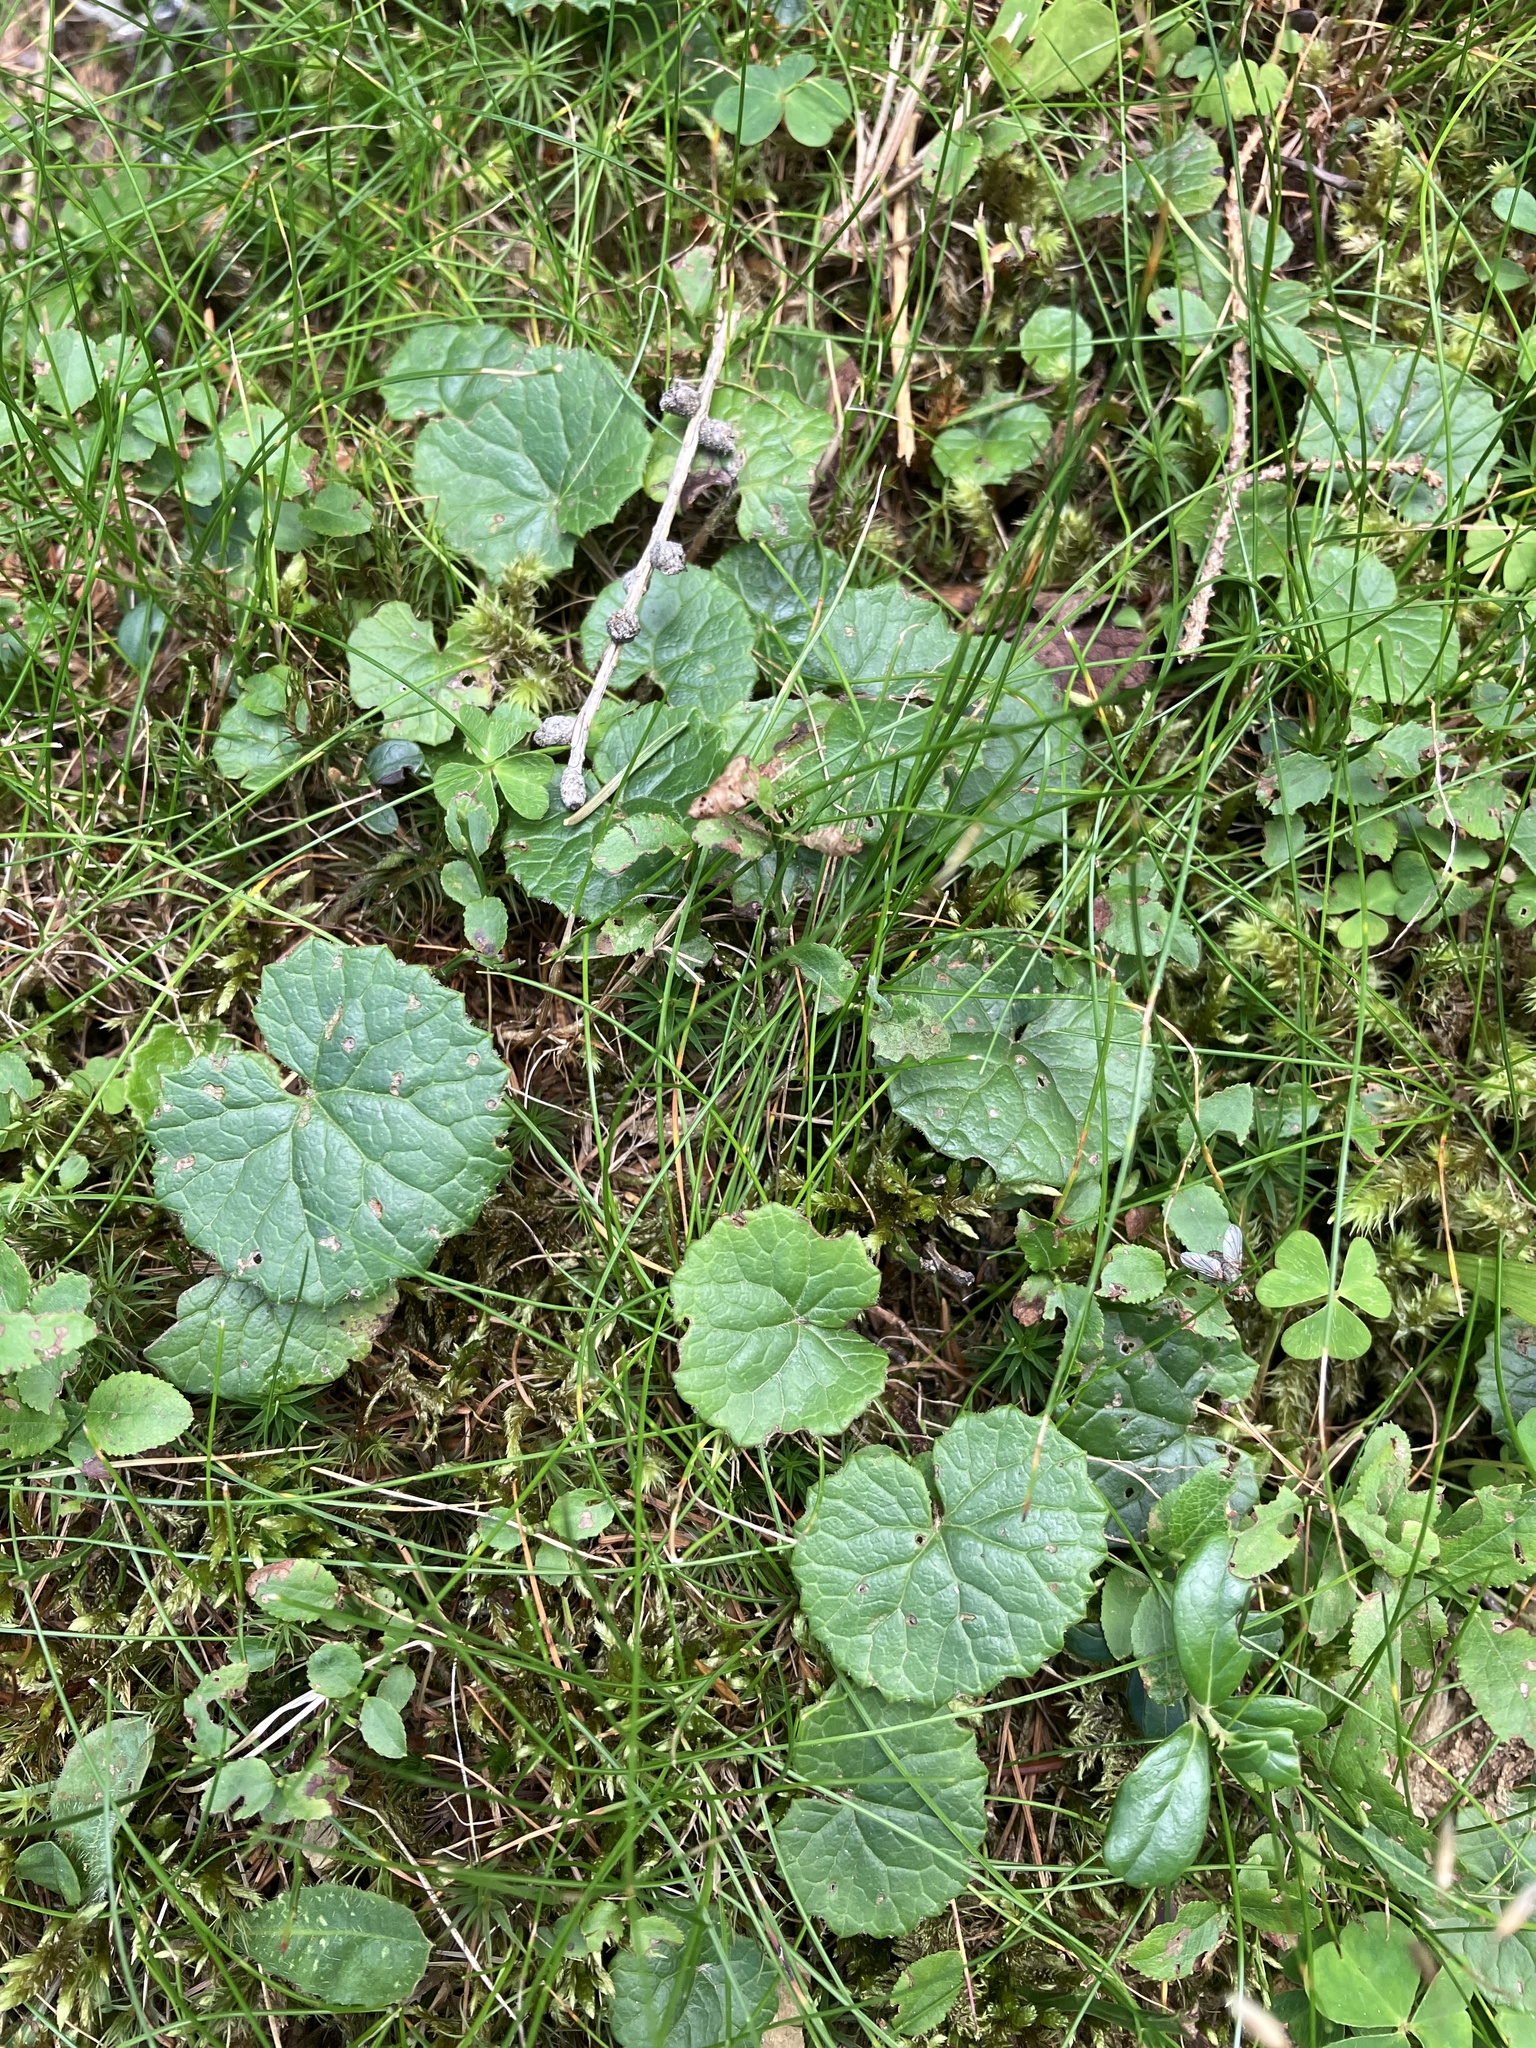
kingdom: Plantae
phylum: Tracheophyta
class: Magnoliopsida
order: Asterales
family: Asteraceae
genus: Homogyne
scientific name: Homogyne alpina
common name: Purple colt's-foot
